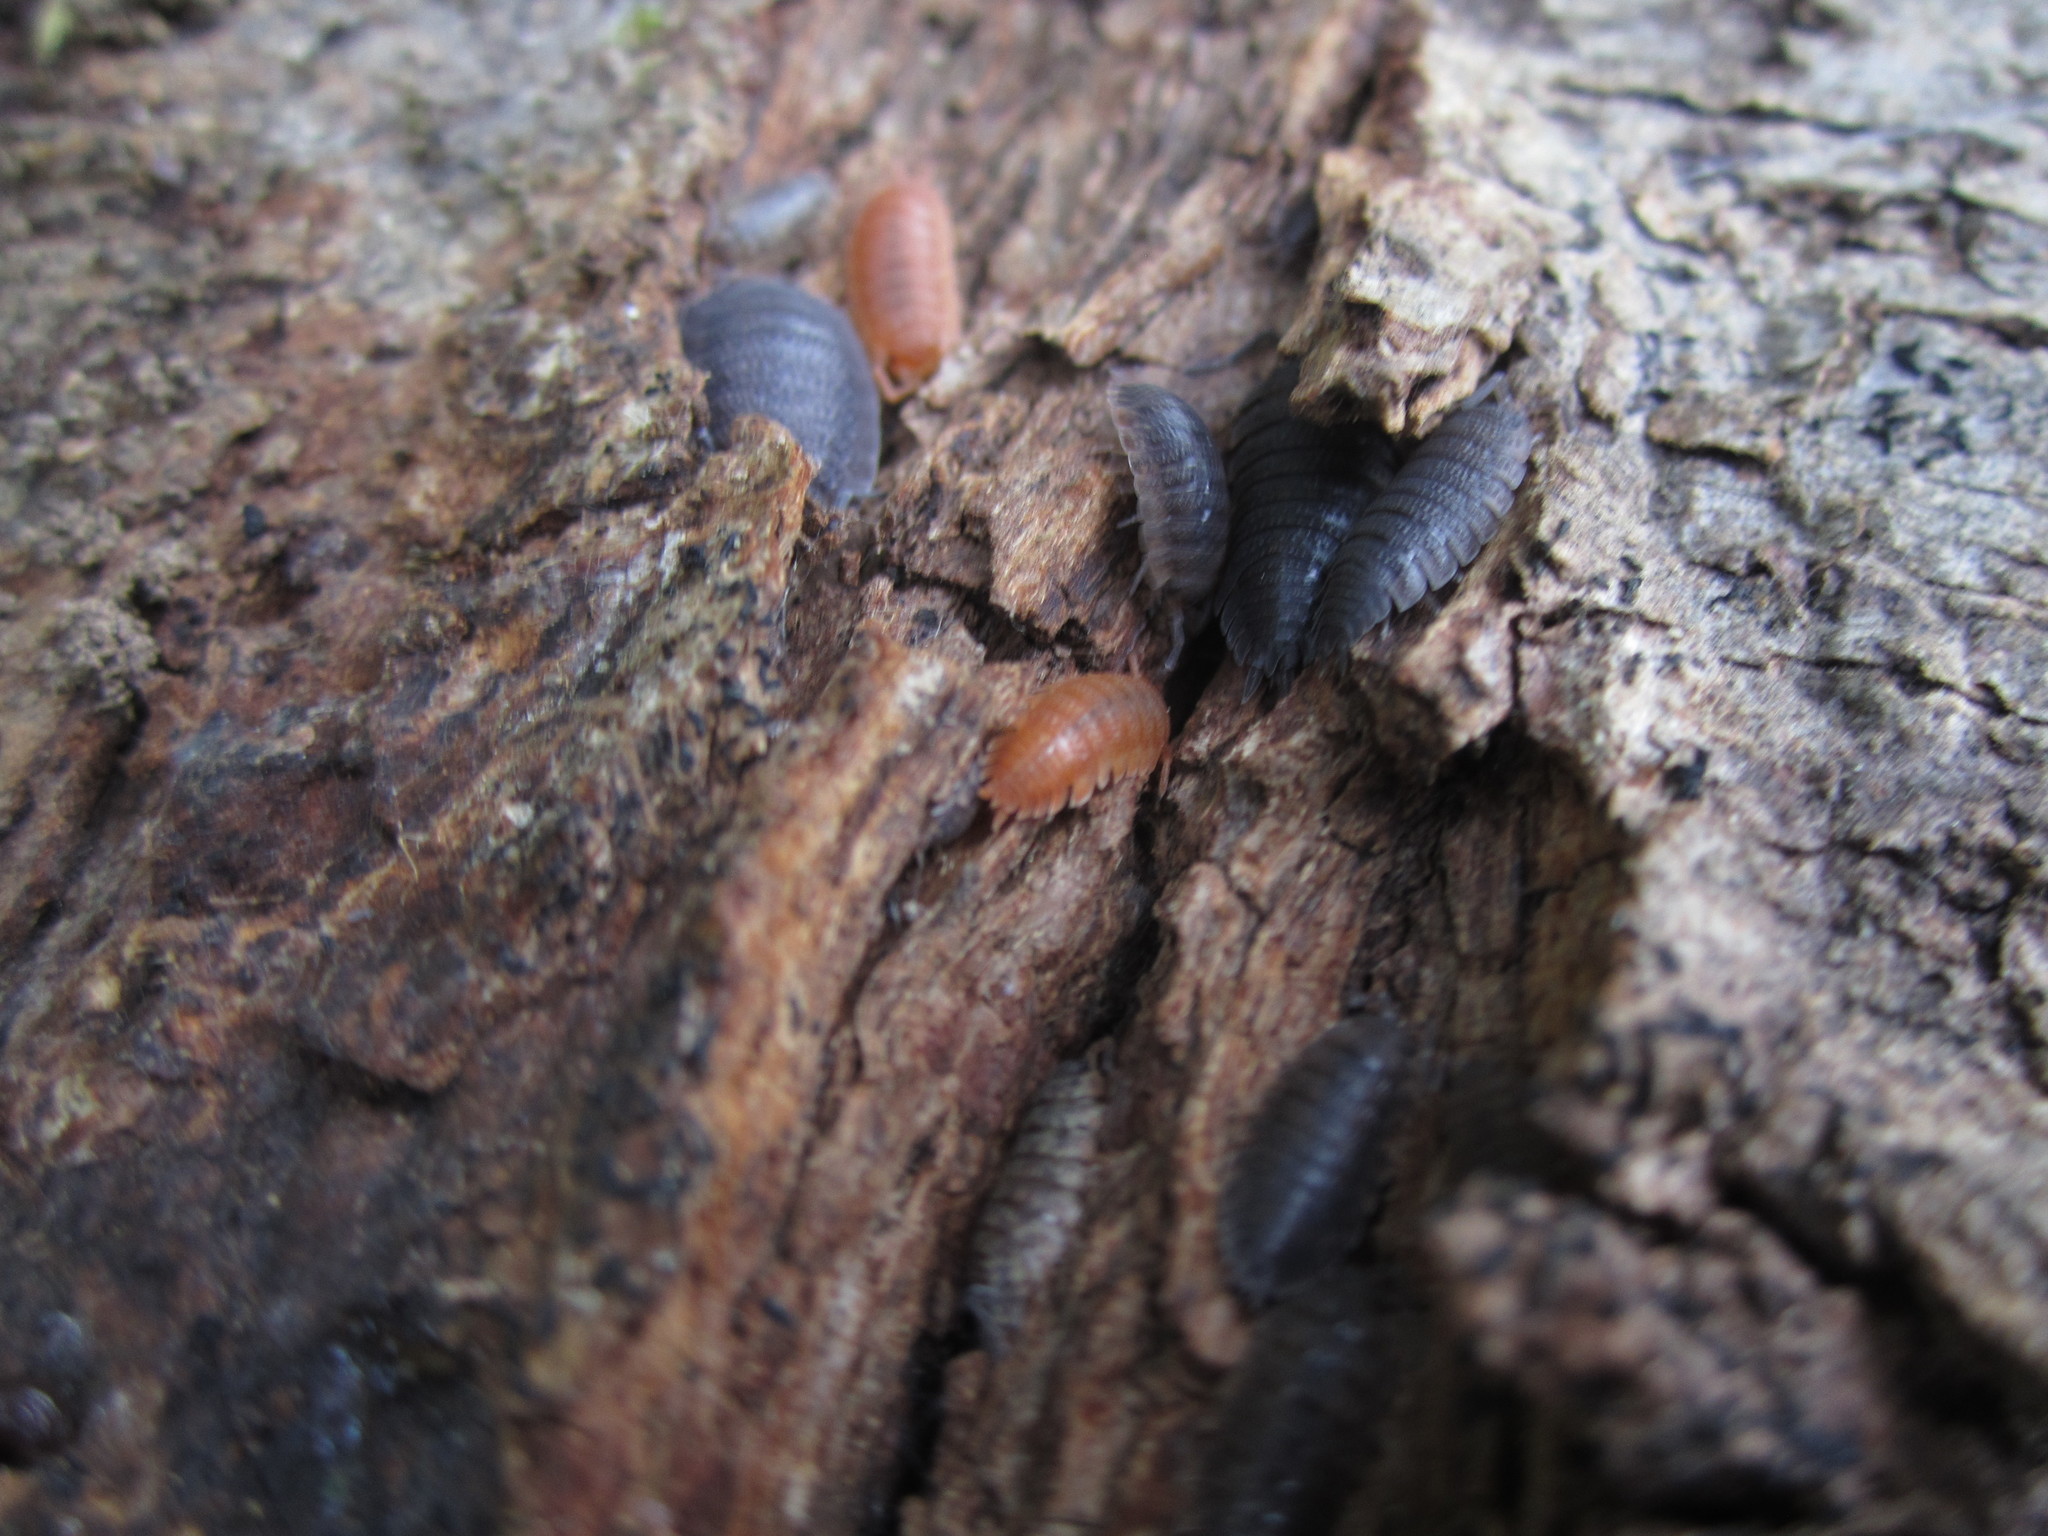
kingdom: Animalia
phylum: Arthropoda
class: Malacostraca
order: Isopoda
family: Porcellionidae
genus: Porcellio
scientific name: Porcellio scaber
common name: Common rough woodlouse
